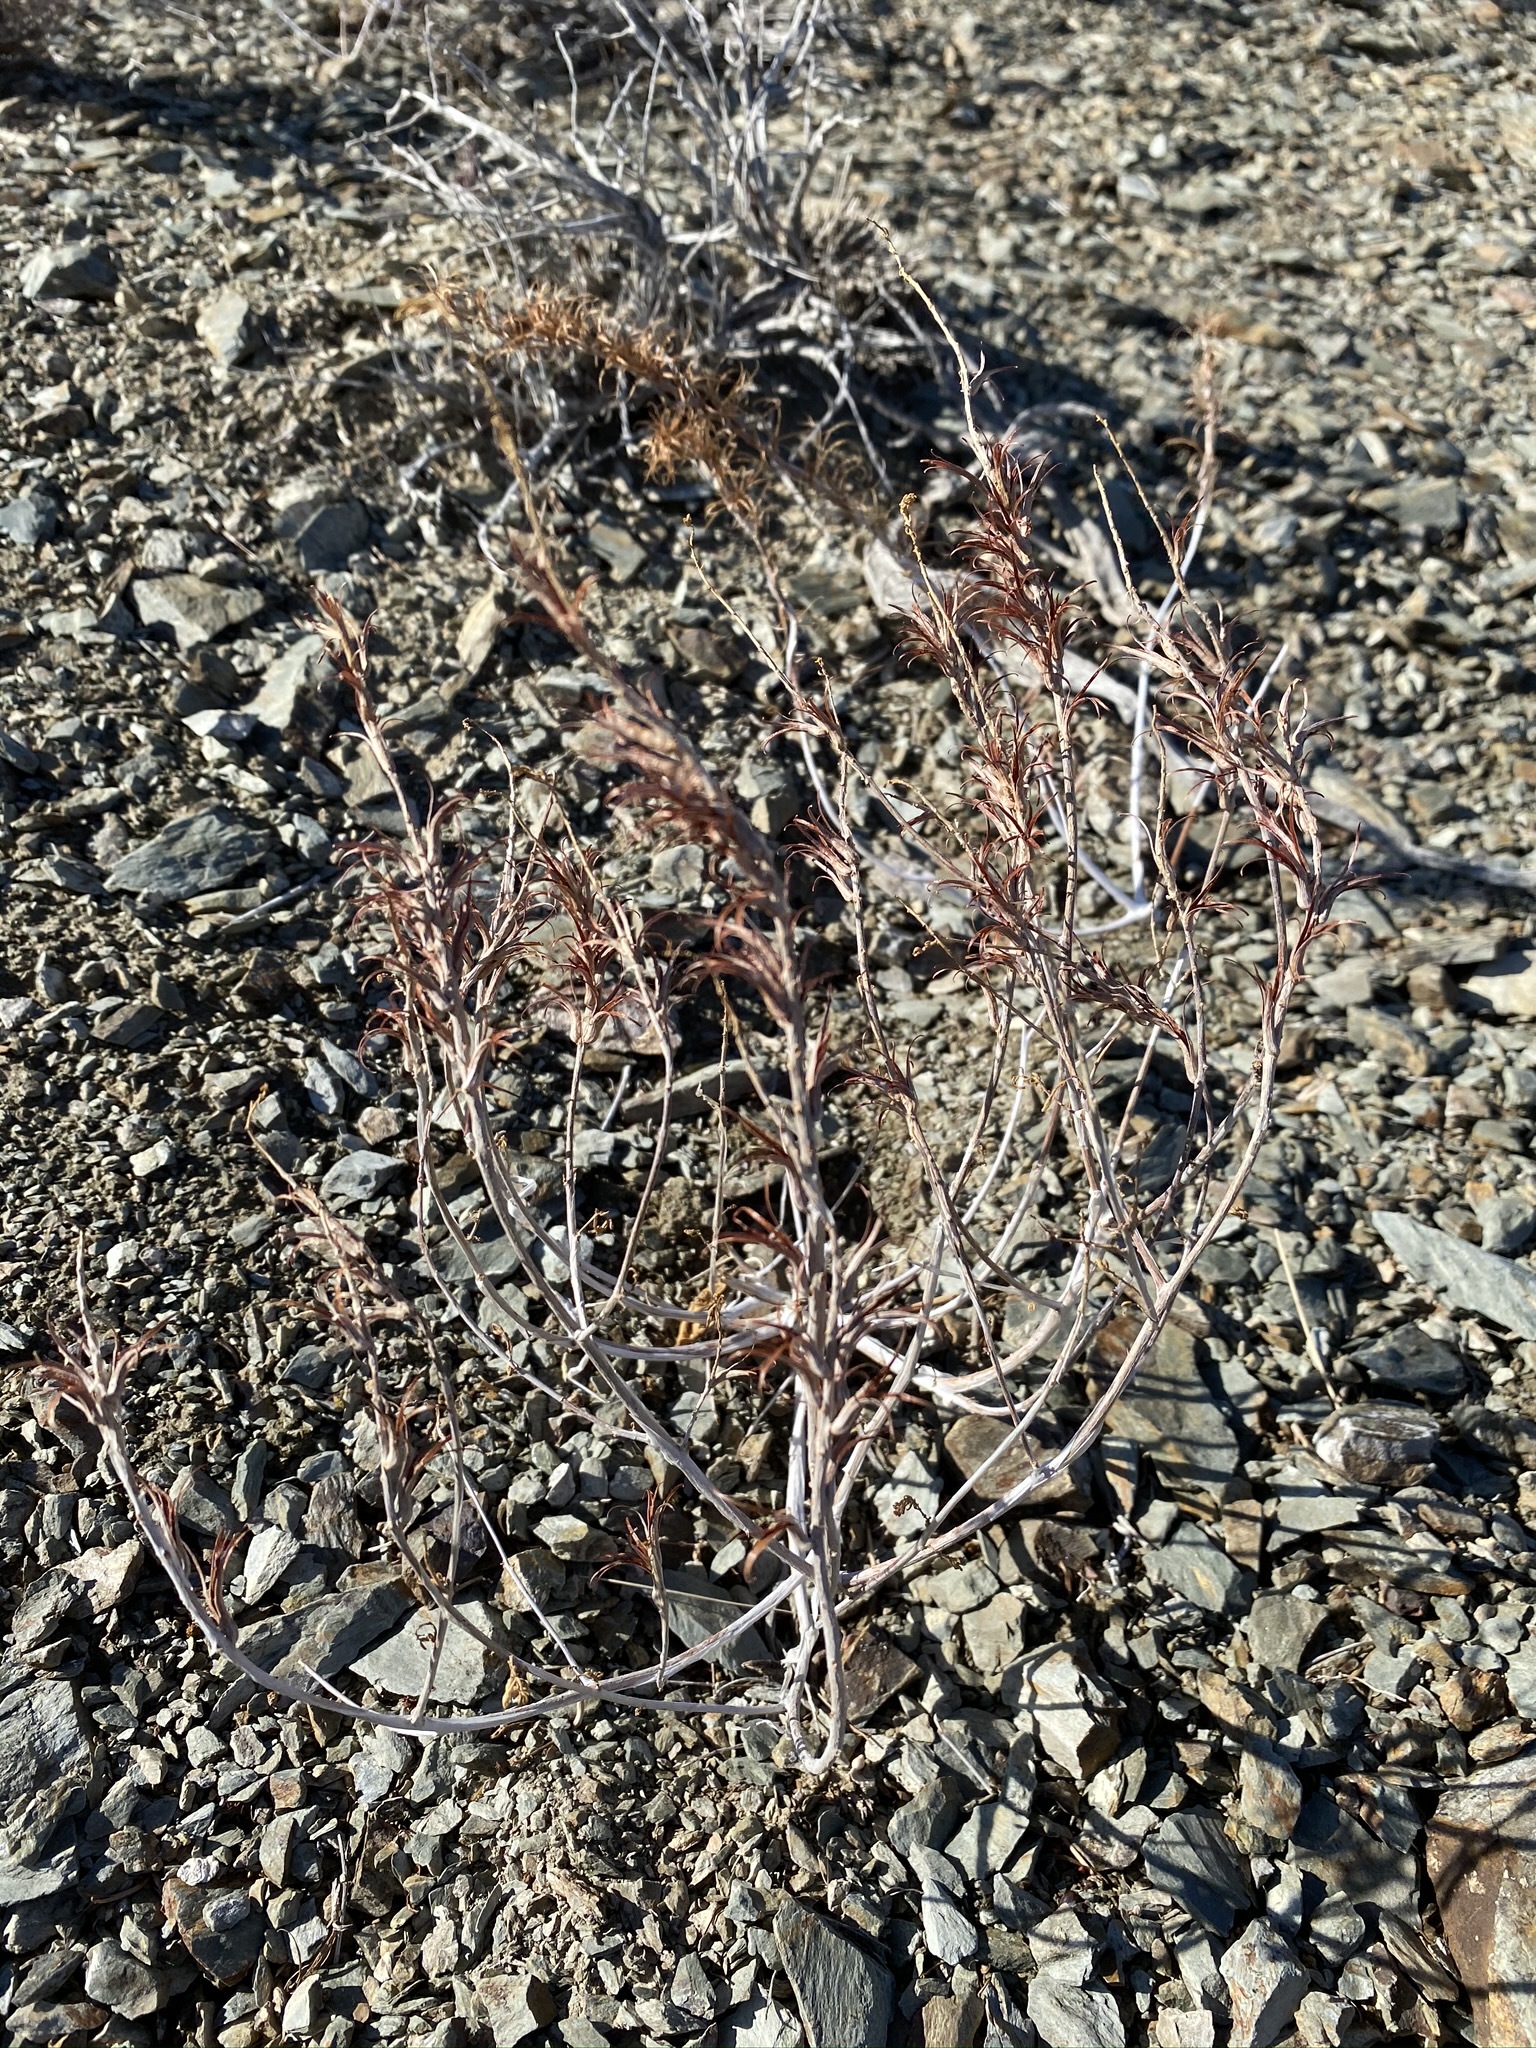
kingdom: Plantae
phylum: Tracheophyta
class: Magnoliopsida
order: Myrtales
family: Onagraceae
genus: Eremothera
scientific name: Eremothera boothii
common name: Booth's evening primrose
